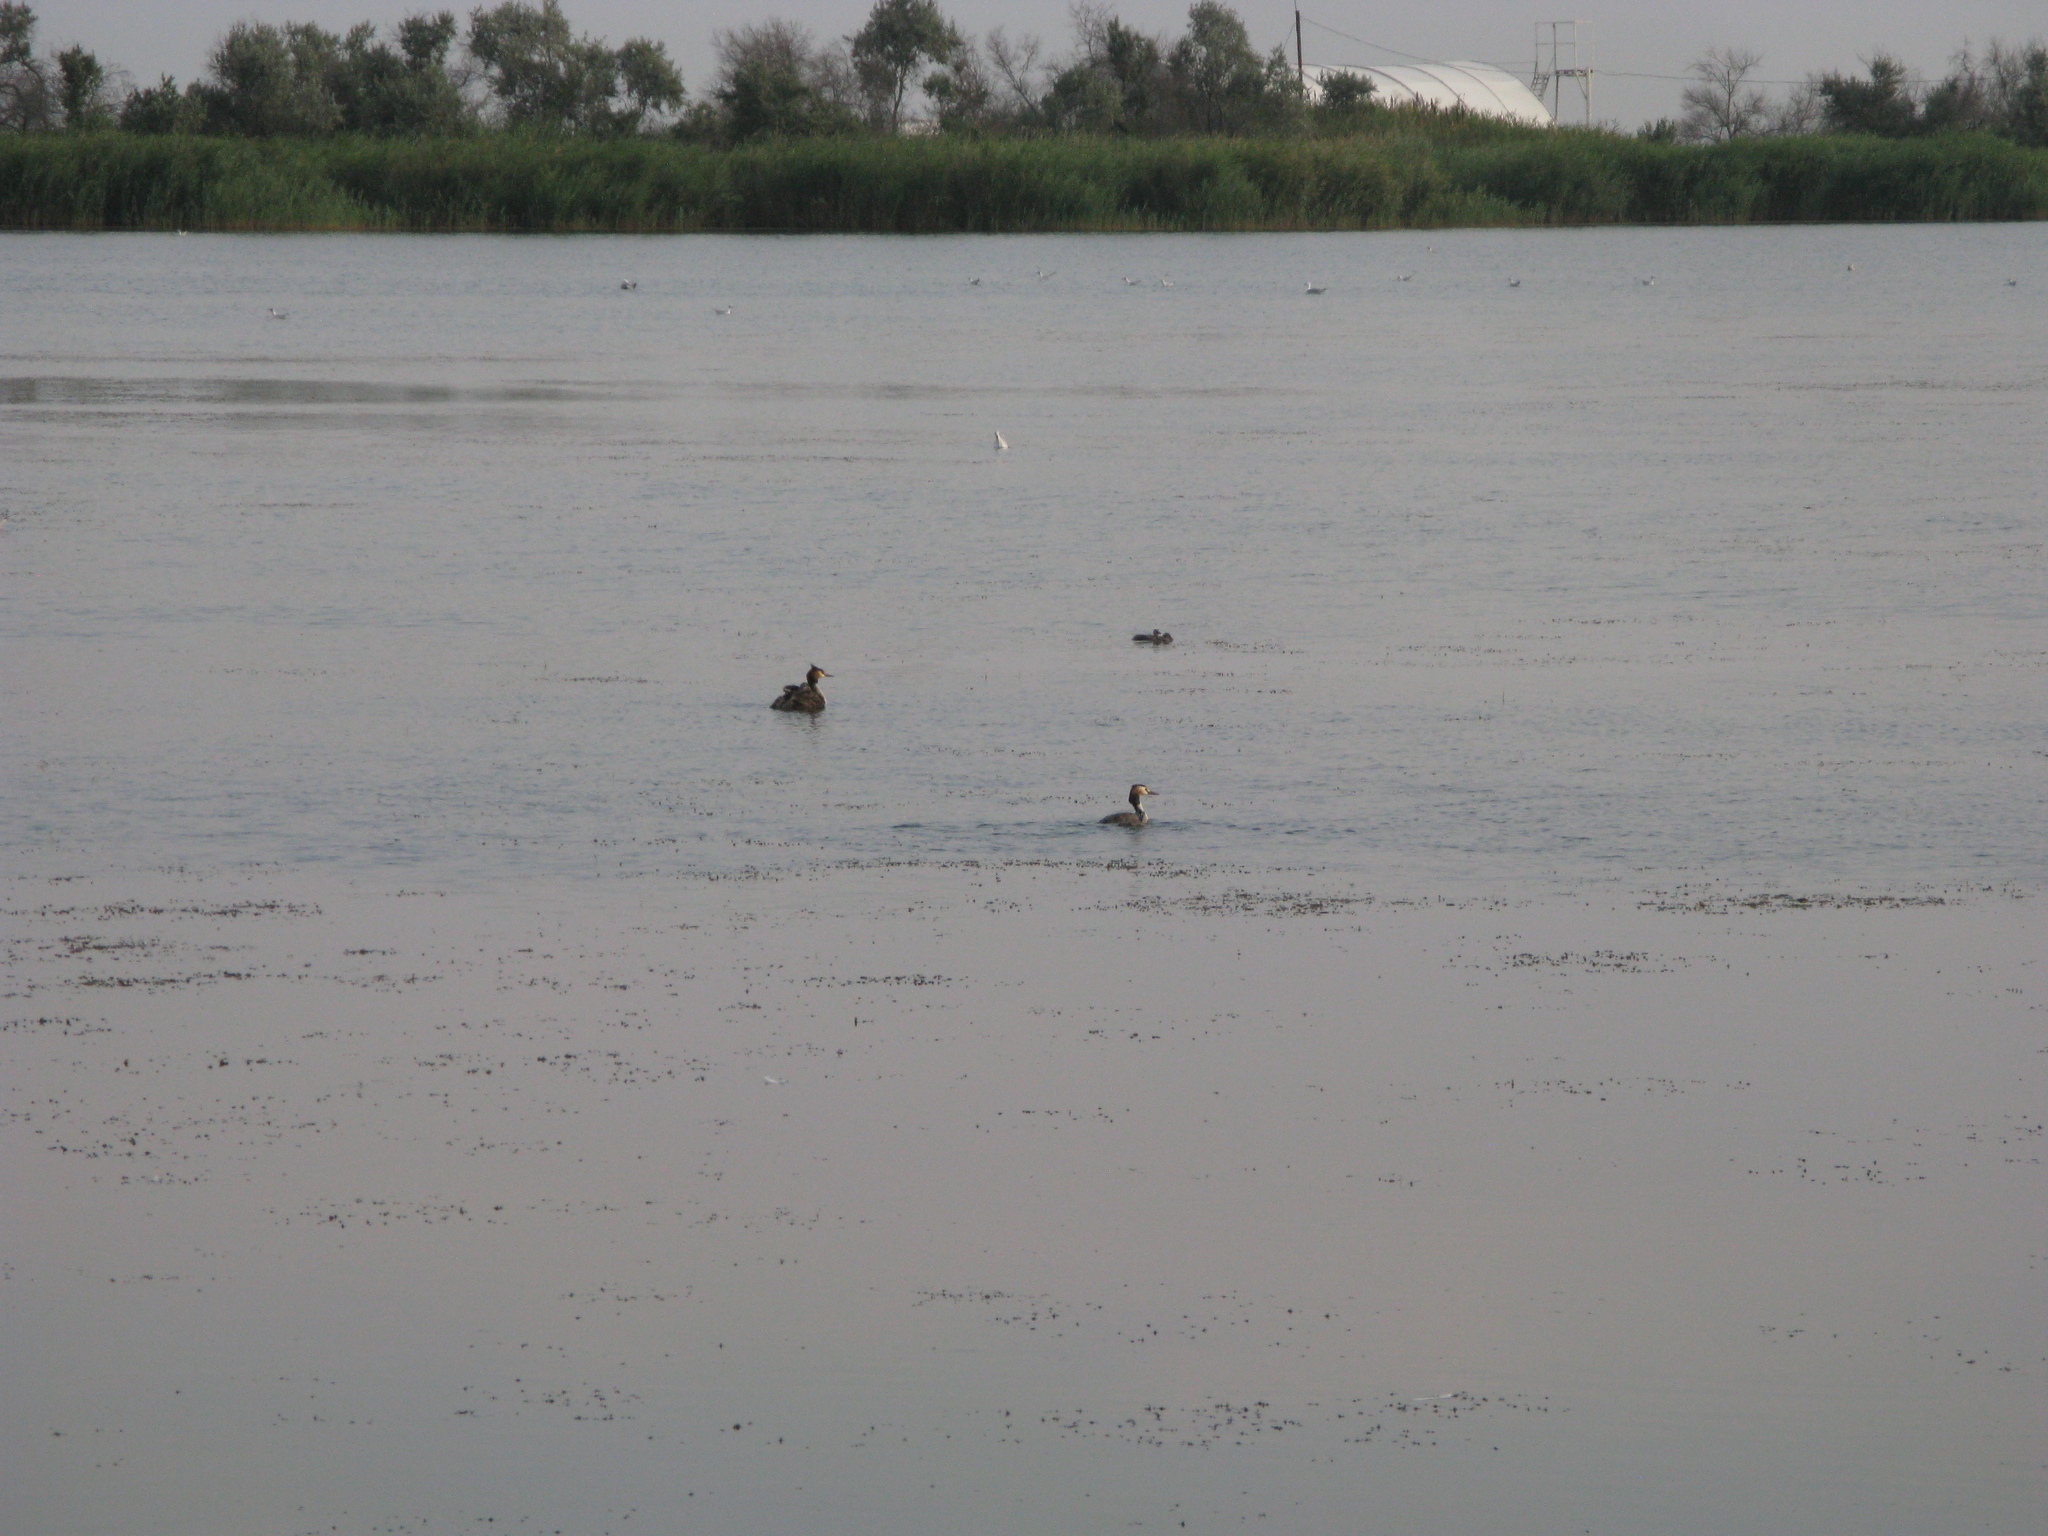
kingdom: Animalia
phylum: Chordata
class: Aves
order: Podicipediformes
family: Podicipedidae
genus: Podiceps
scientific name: Podiceps cristatus
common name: Great crested grebe
